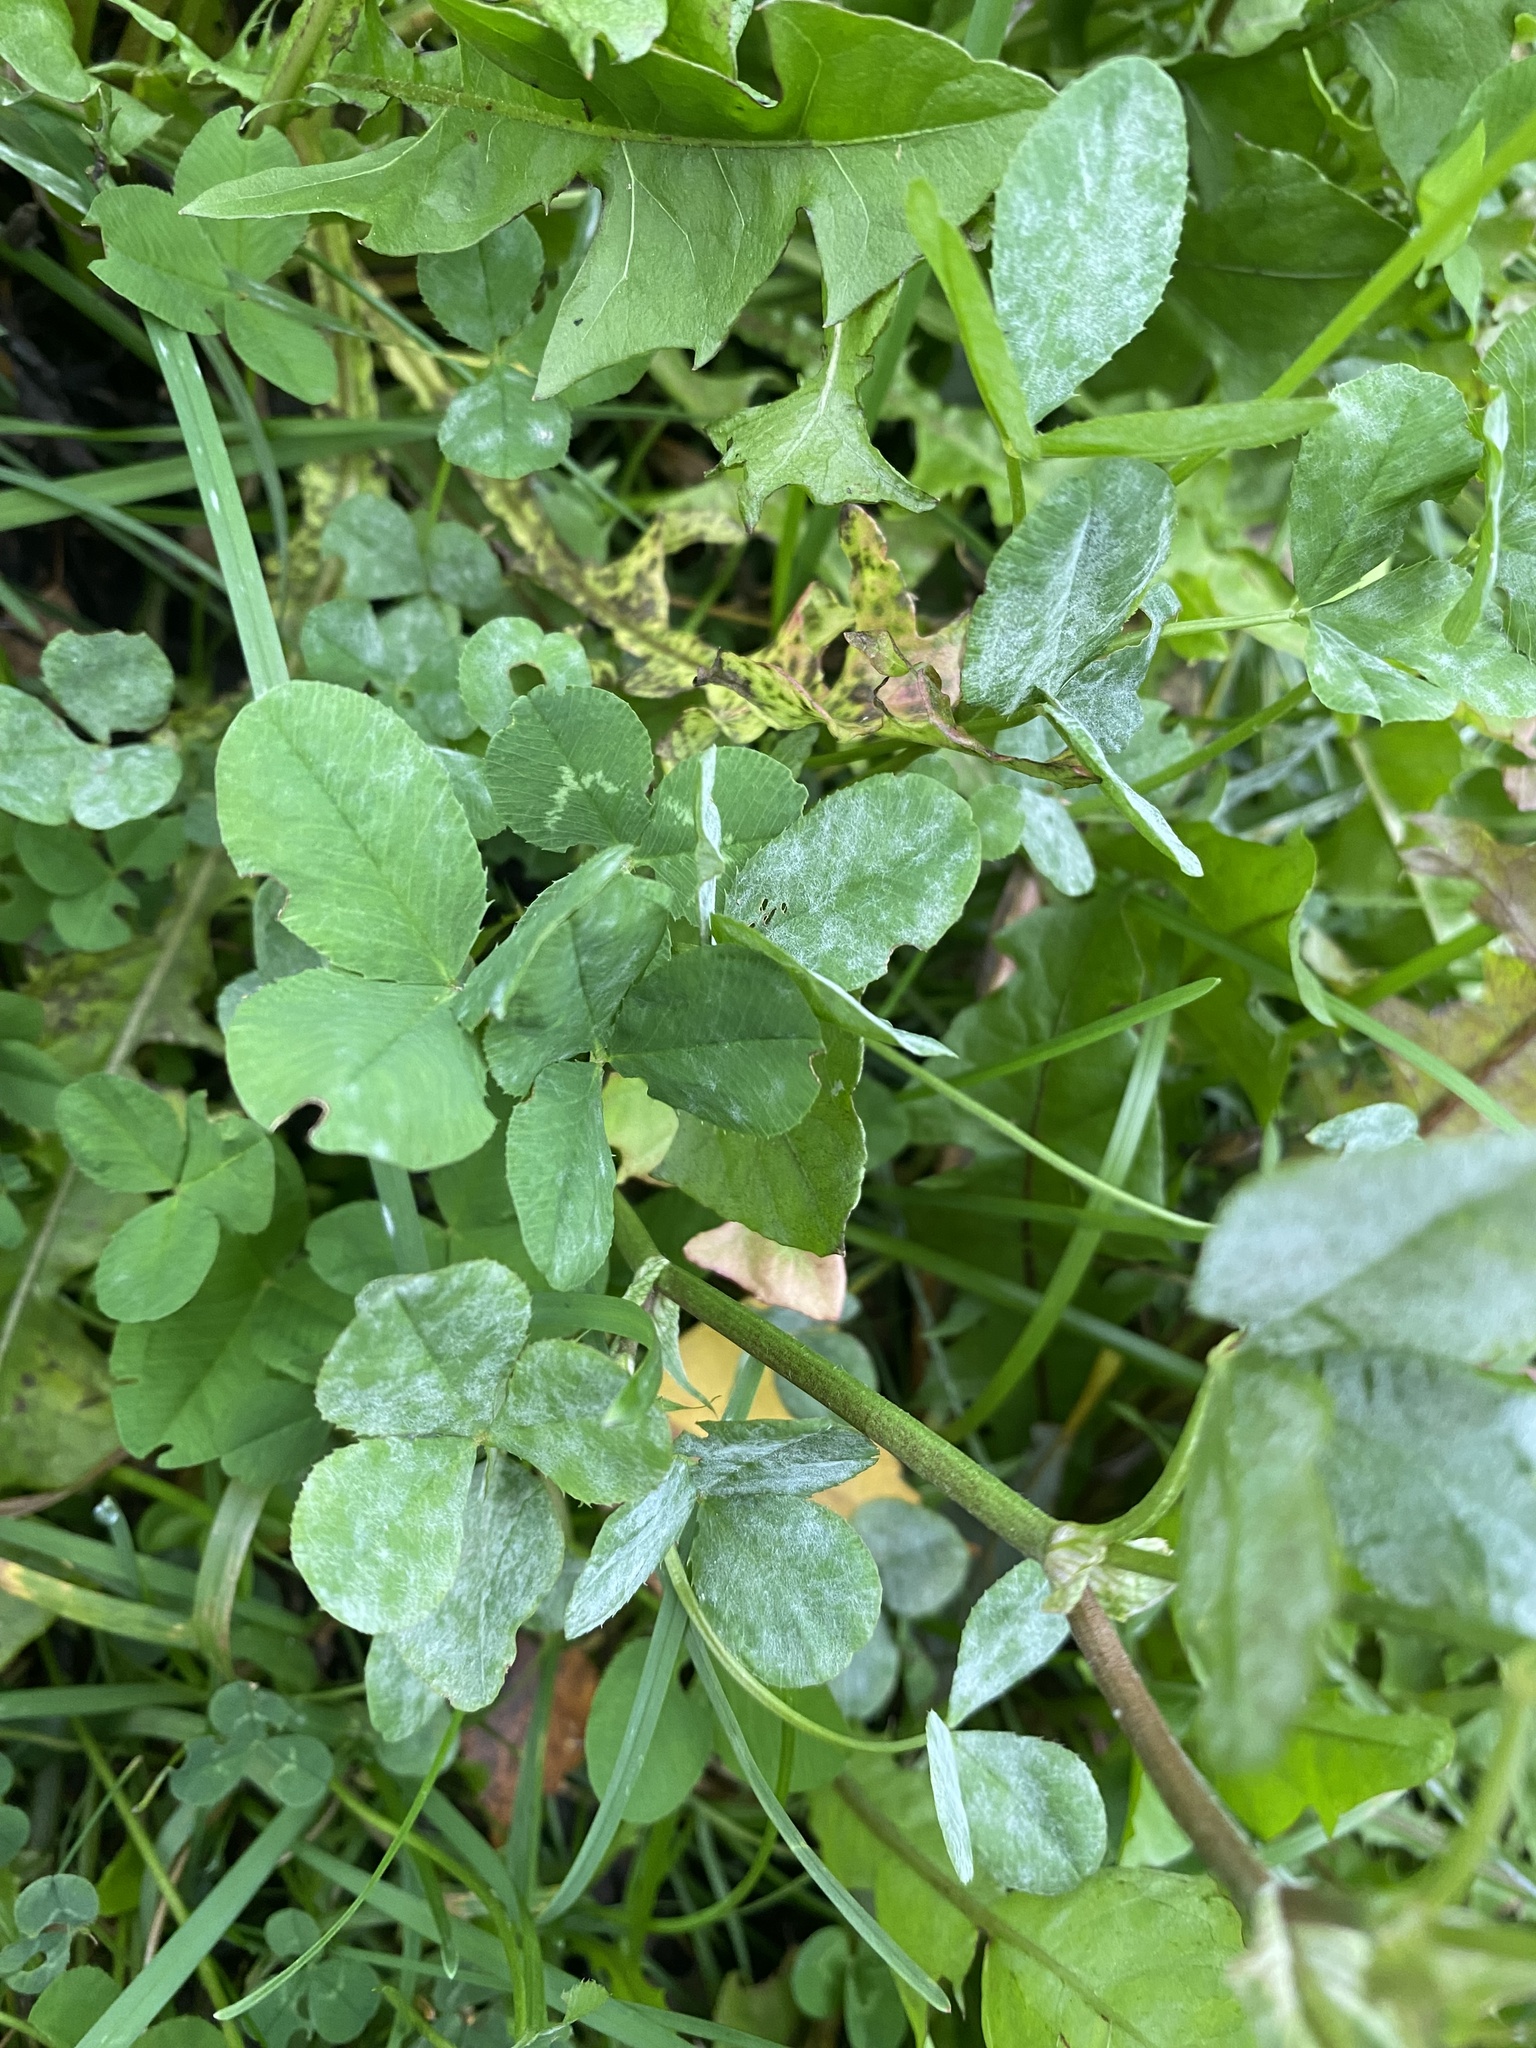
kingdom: Plantae
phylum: Tracheophyta
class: Magnoliopsida
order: Fabales
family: Fabaceae
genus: Trifolium
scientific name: Trifolium hybridum
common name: Alsike clover
